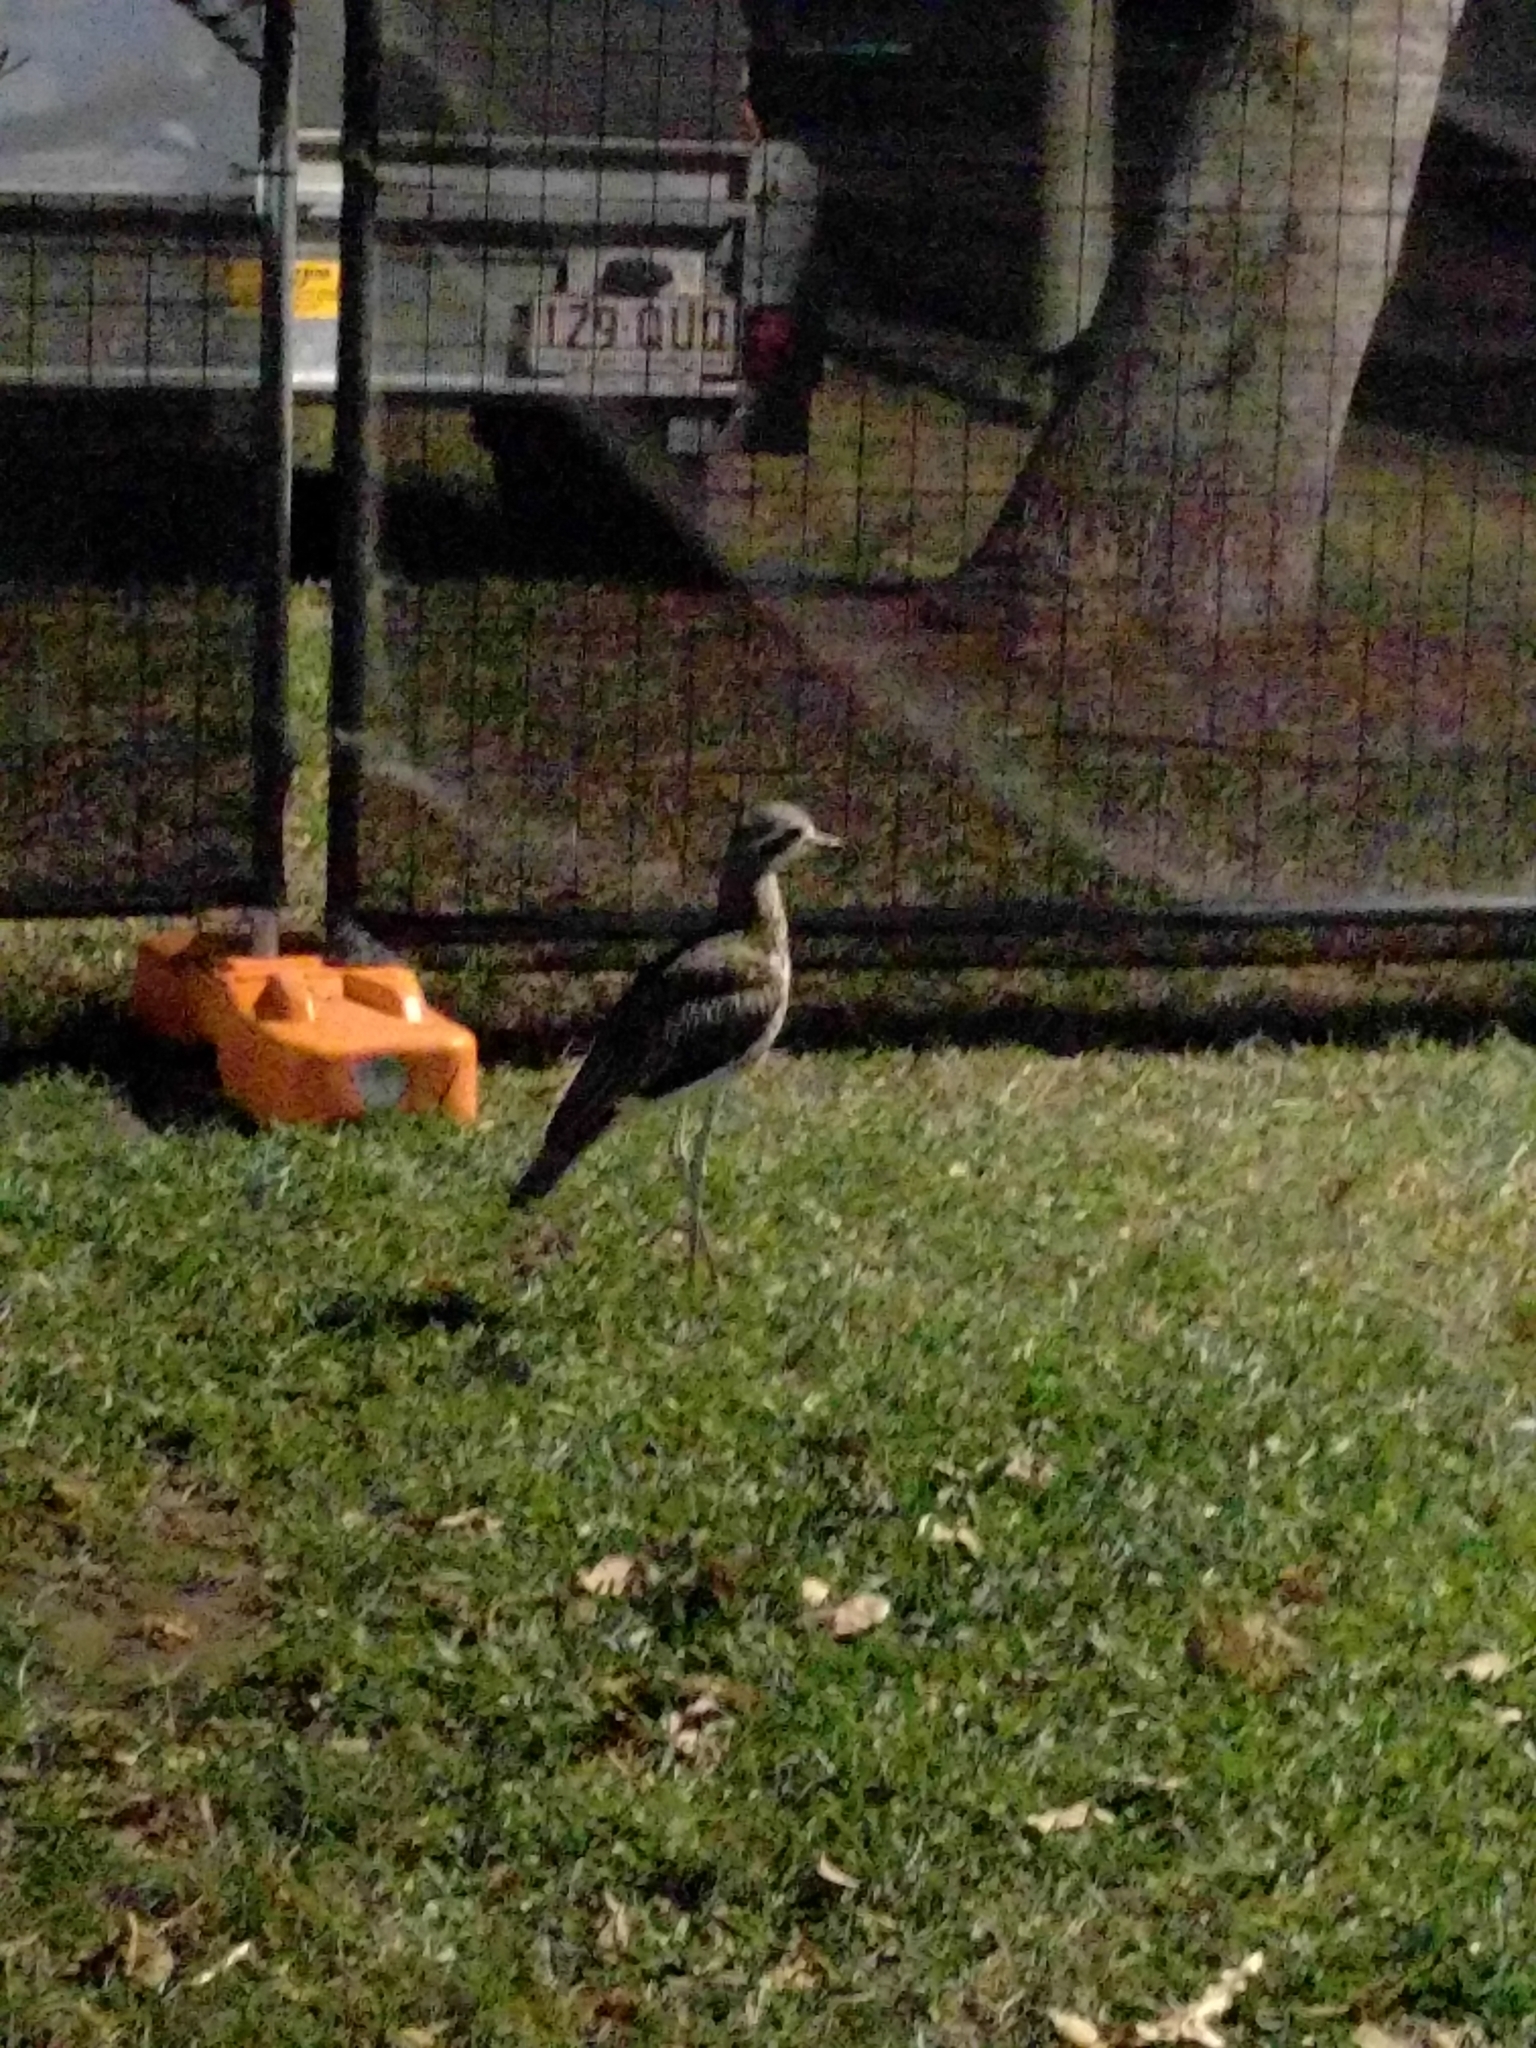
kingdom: Animalia
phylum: Chordata
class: Aves
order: Charadriiformes
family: Burhinidae
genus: Burhinus
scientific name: Burhinus grallarius
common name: Bush stone-curlew
